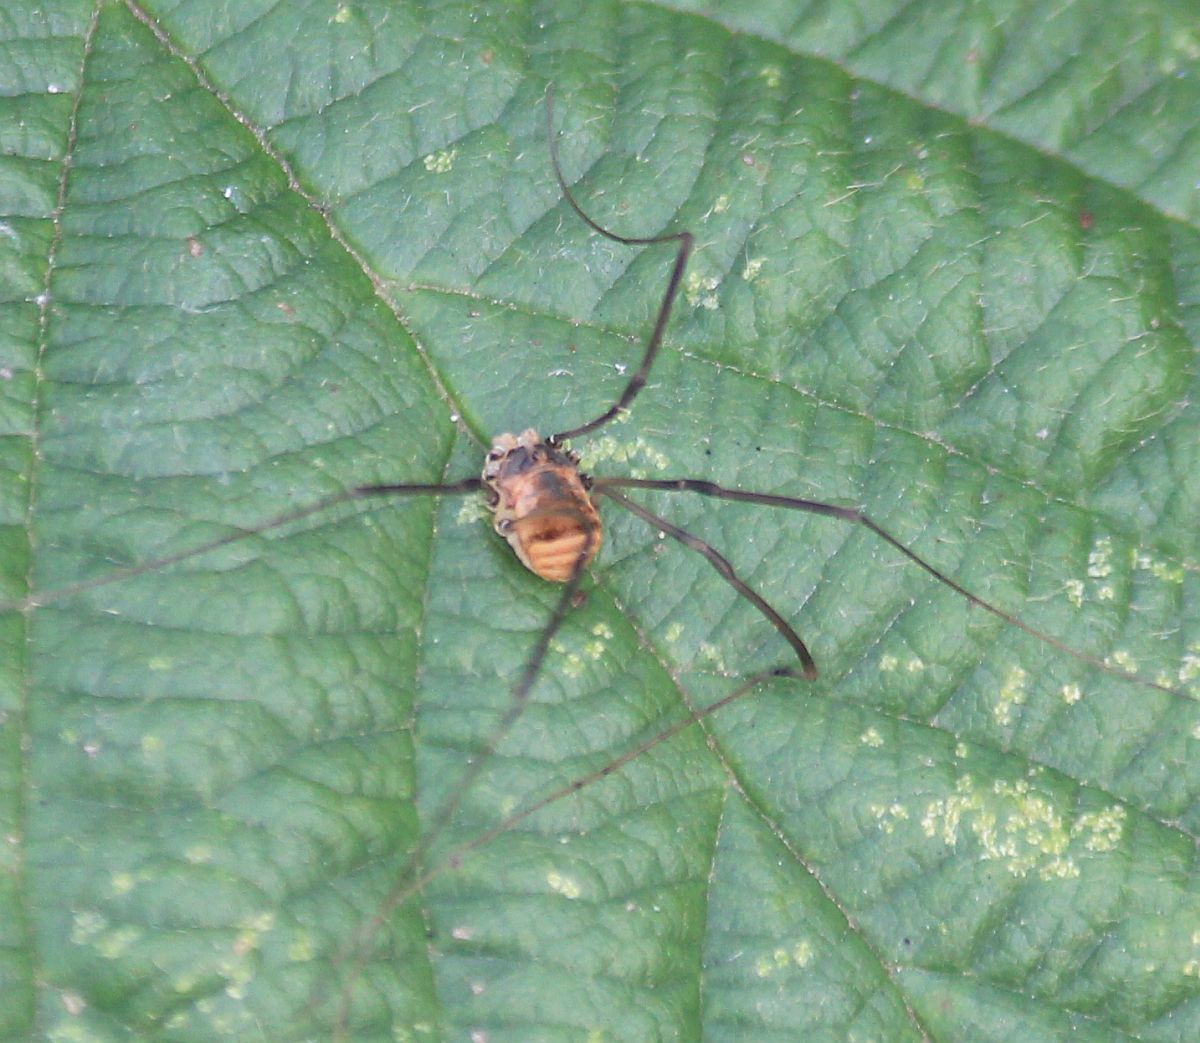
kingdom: Animalia
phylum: Arthropoda
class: Arachnida
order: Opiliones
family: Sclerosomatidae
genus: Leiobunum
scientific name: Leiobunum blackwalli
